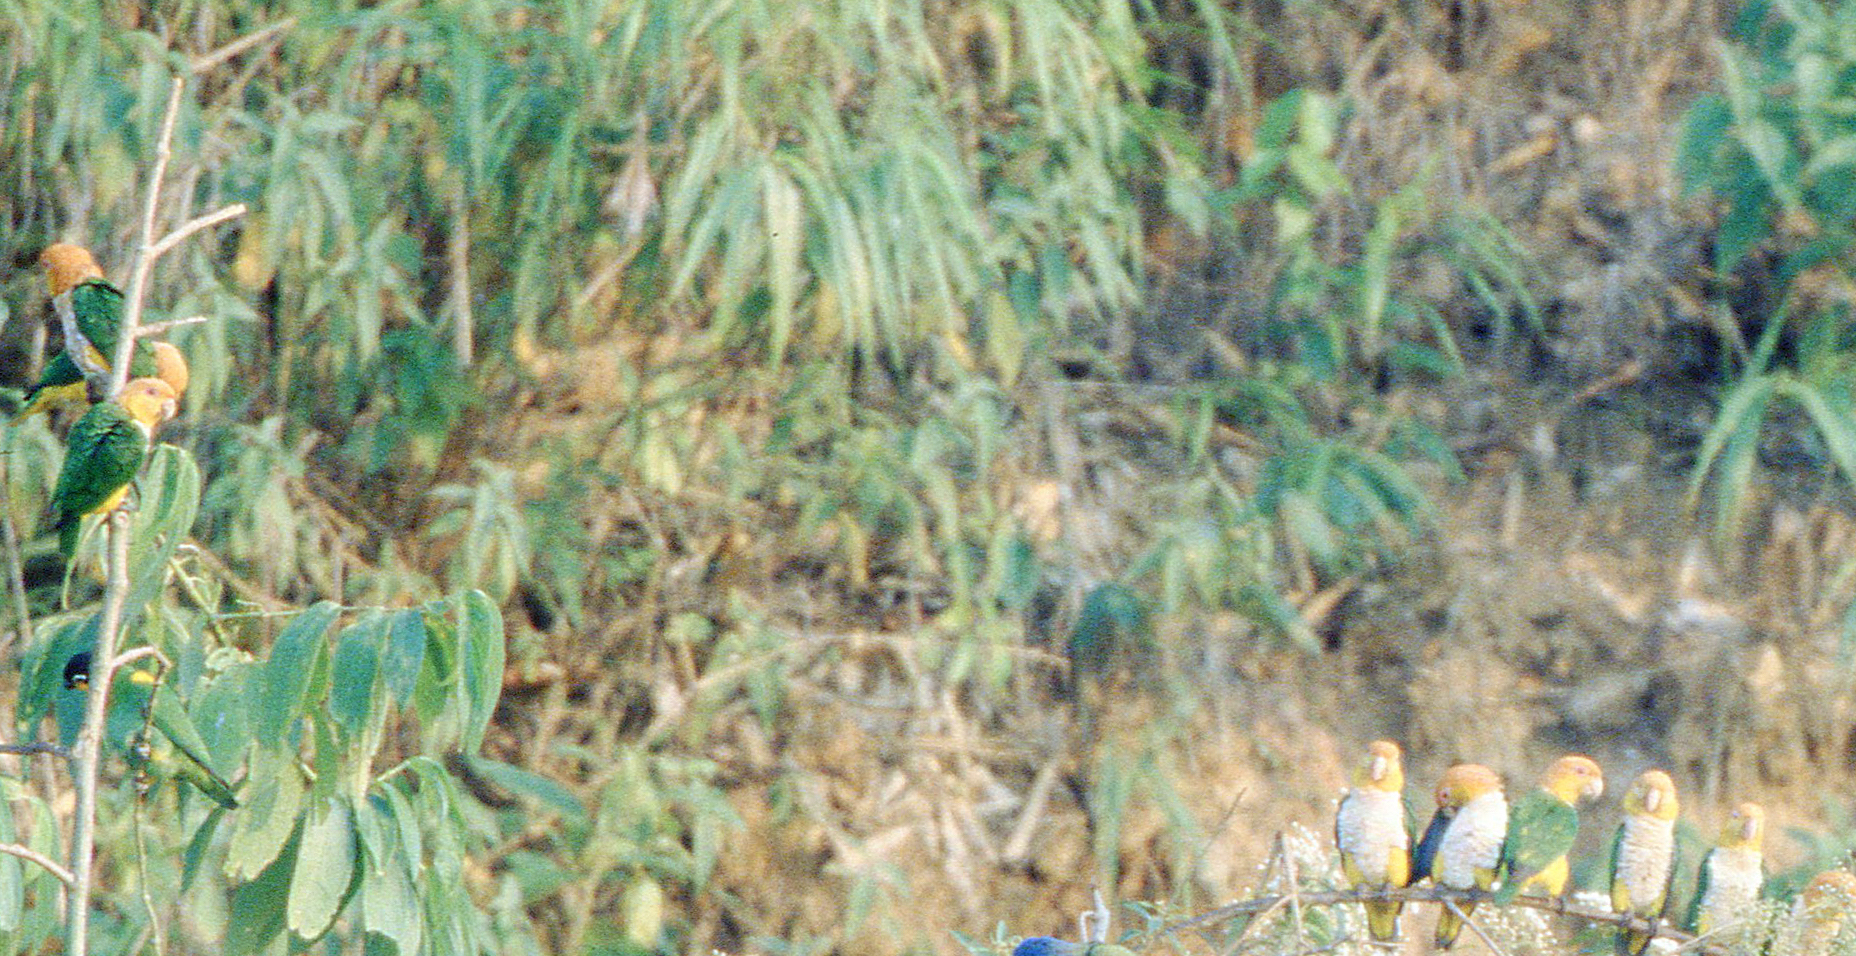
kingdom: Animalia
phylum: Chordata
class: Aves
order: Psittaciformes
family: Psittacidae
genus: Pionites
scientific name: Pionites leucogaster
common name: White-bellied parrot
